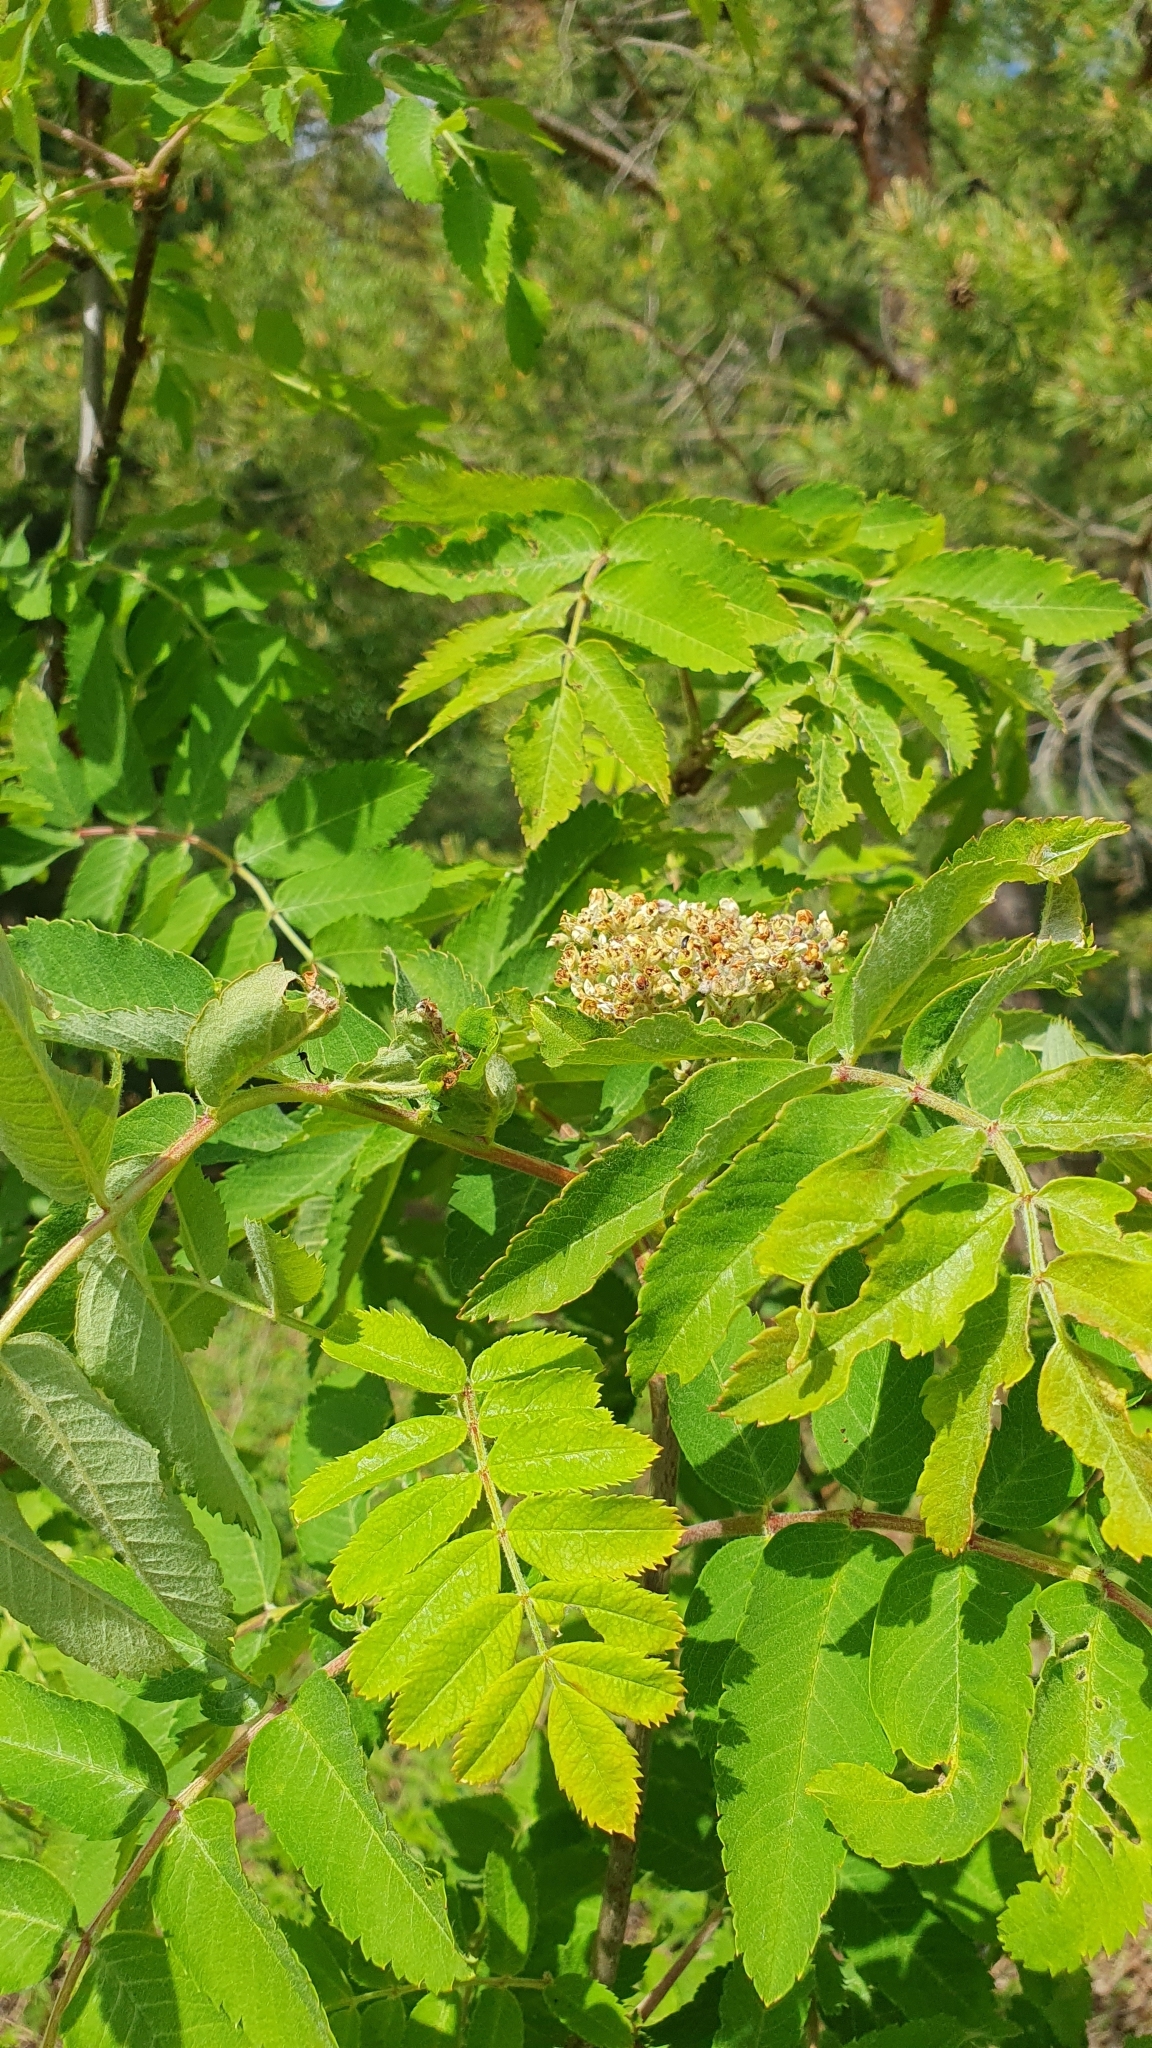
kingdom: Plantae
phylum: Tracheophyta
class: Magnoliopsida
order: Rosales
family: Rosaceae
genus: Sorbus
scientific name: Sorbus aucuparia
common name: Rowan
